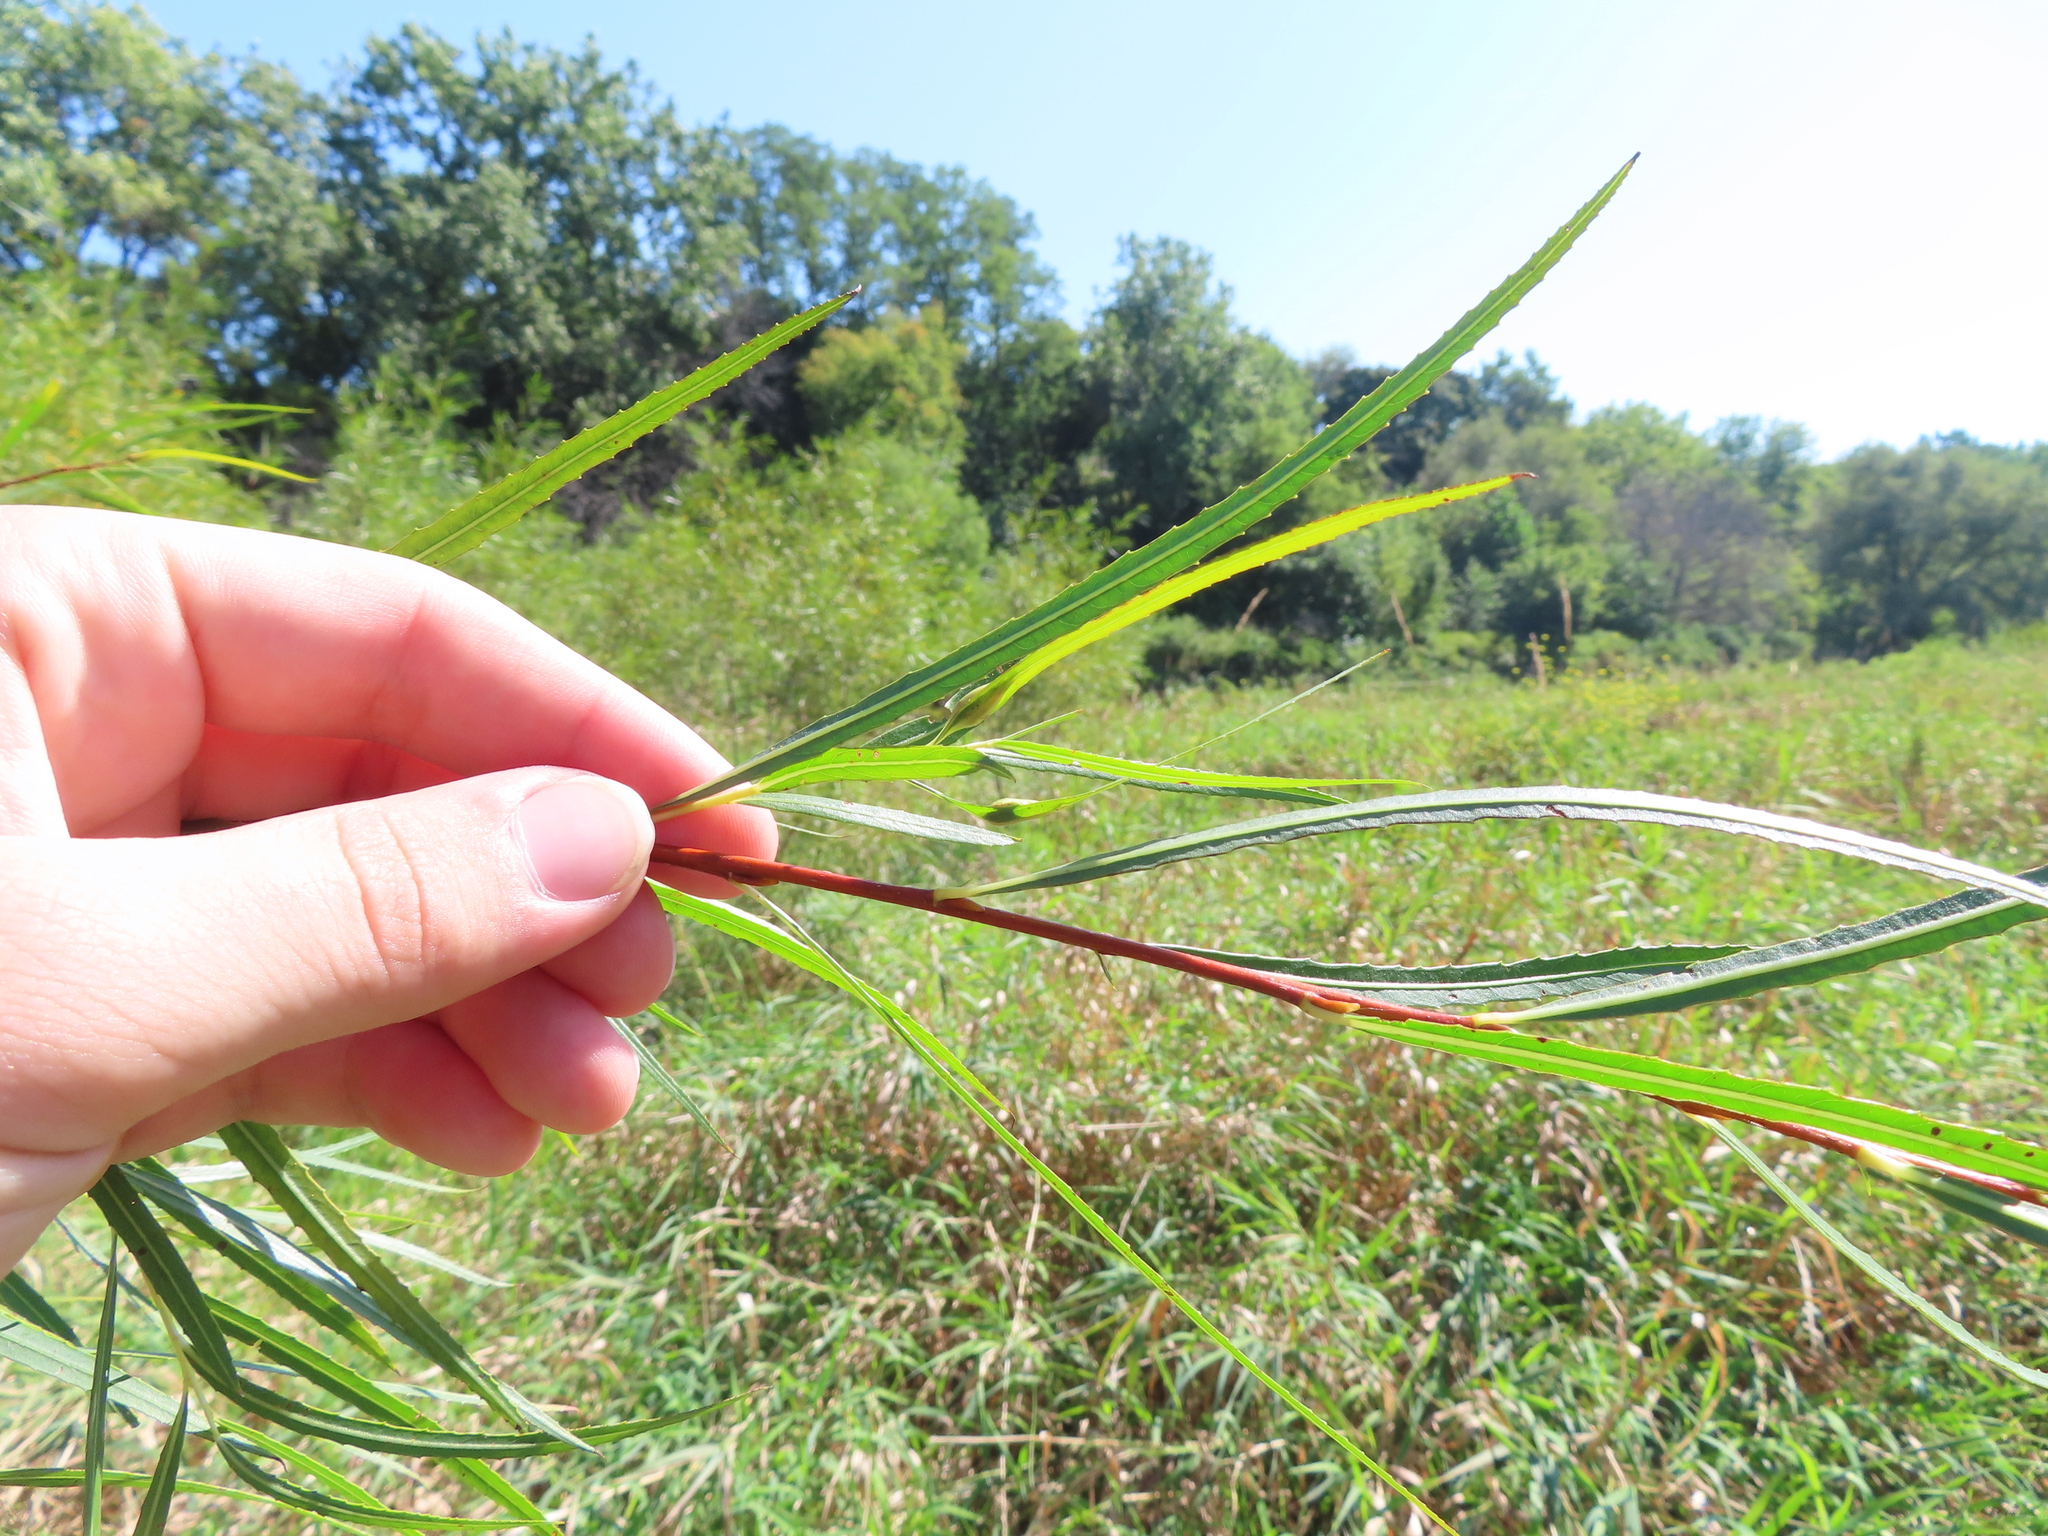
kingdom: Plantae
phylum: Tracheophyta
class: Magnoliopsida
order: Malpighiales
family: Salicaceae
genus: Salix
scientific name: Salix interior
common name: Sandbar willow
